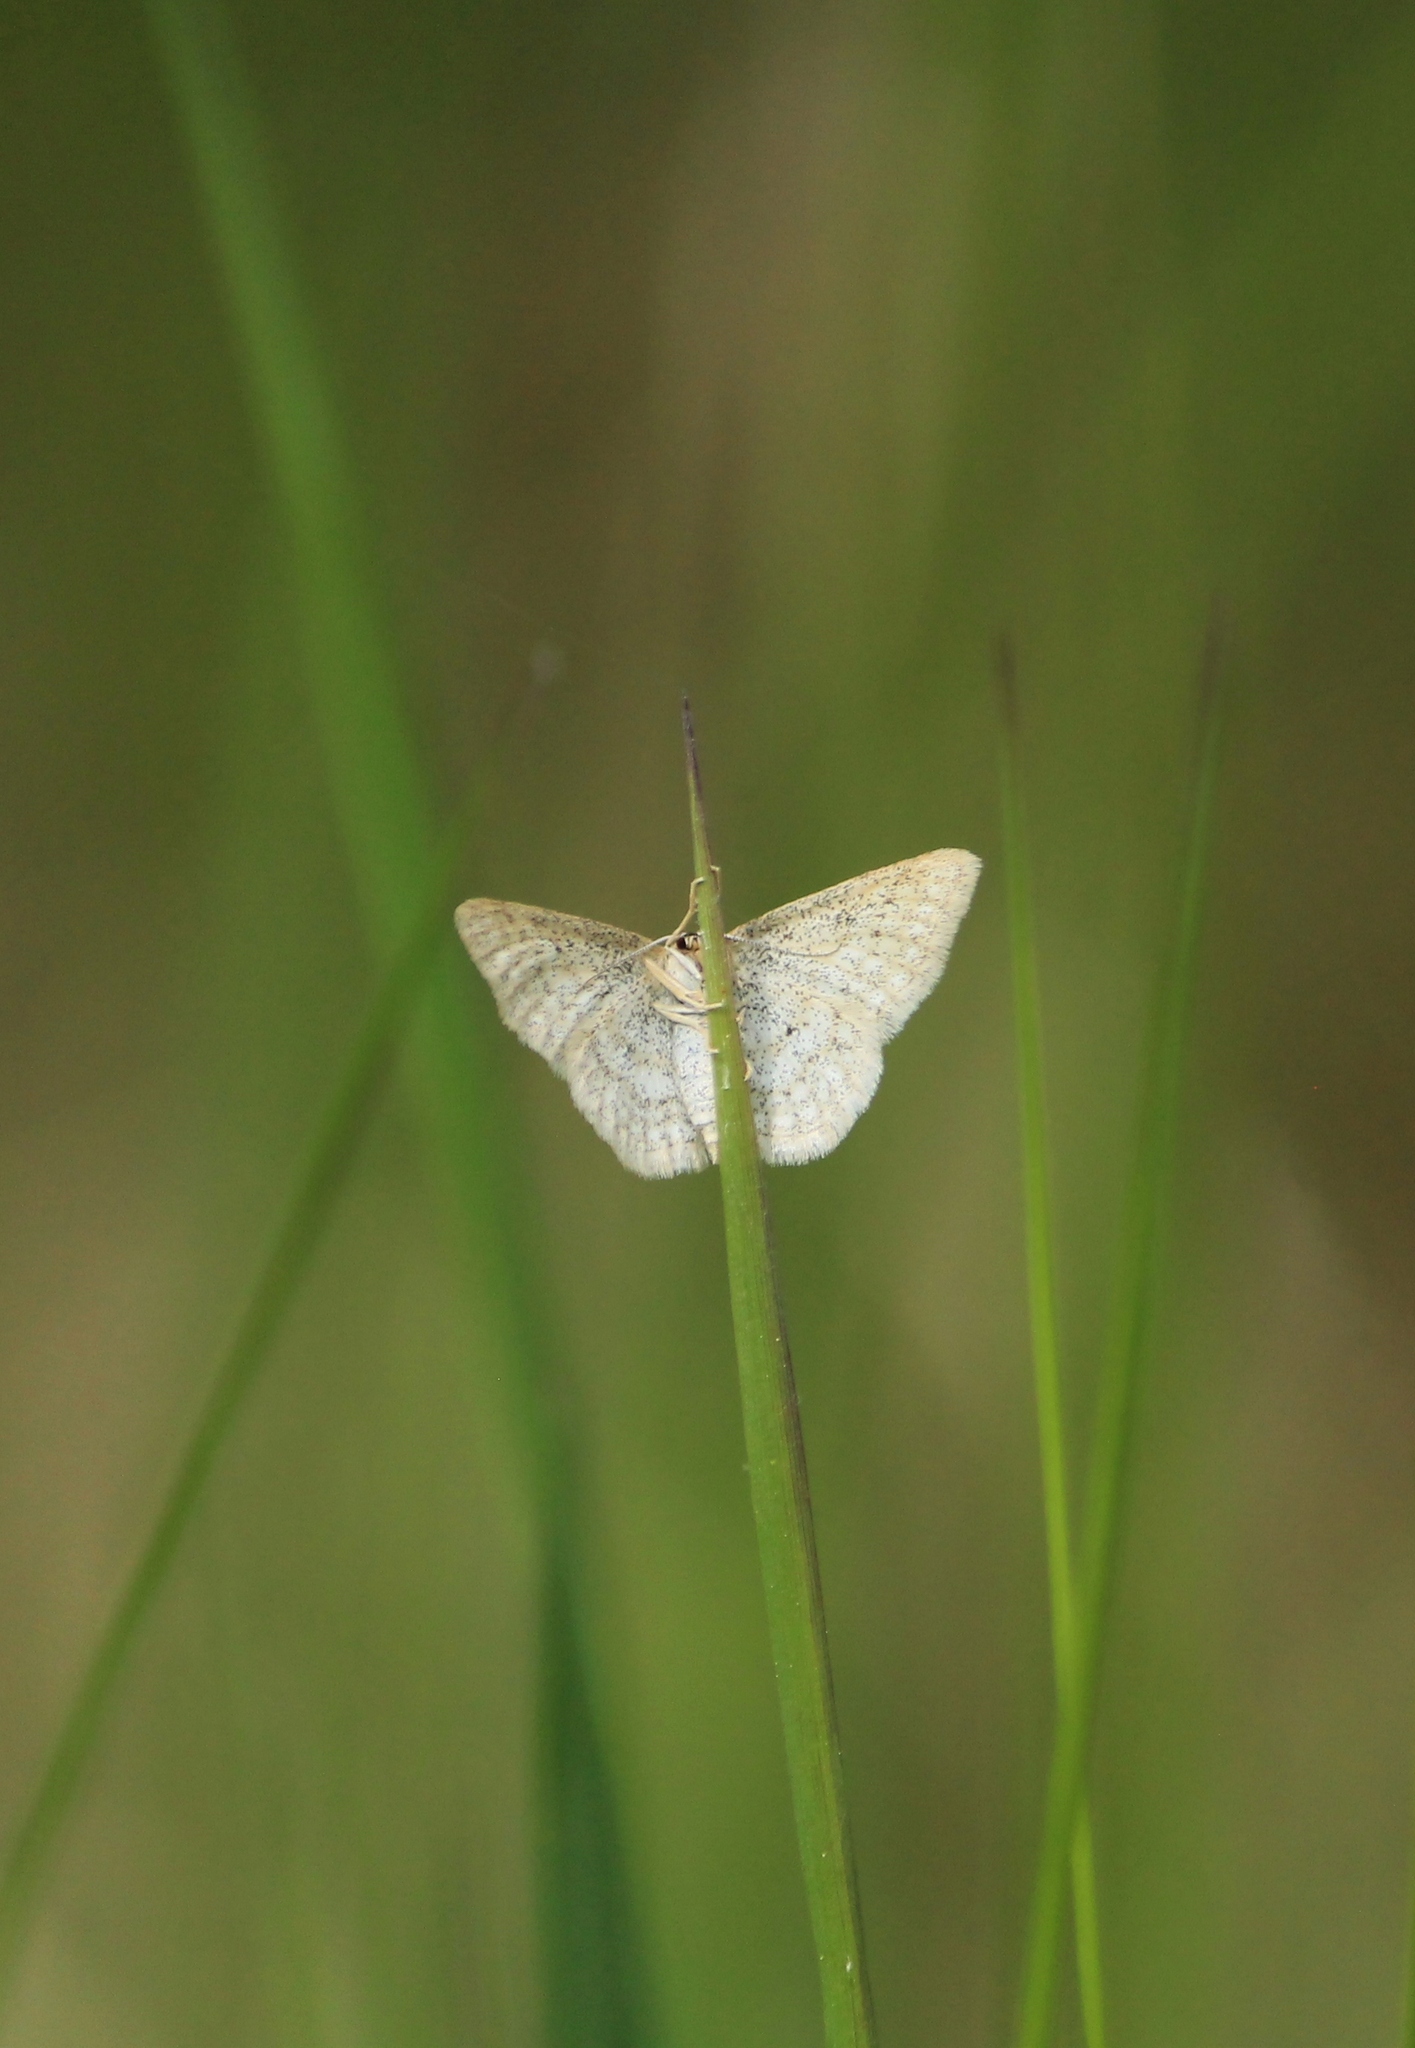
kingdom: Animalia
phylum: Arthropoda
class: Insecta
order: Lepidoptera
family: Geometridae
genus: Idaea
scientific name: Idaea pallidata
